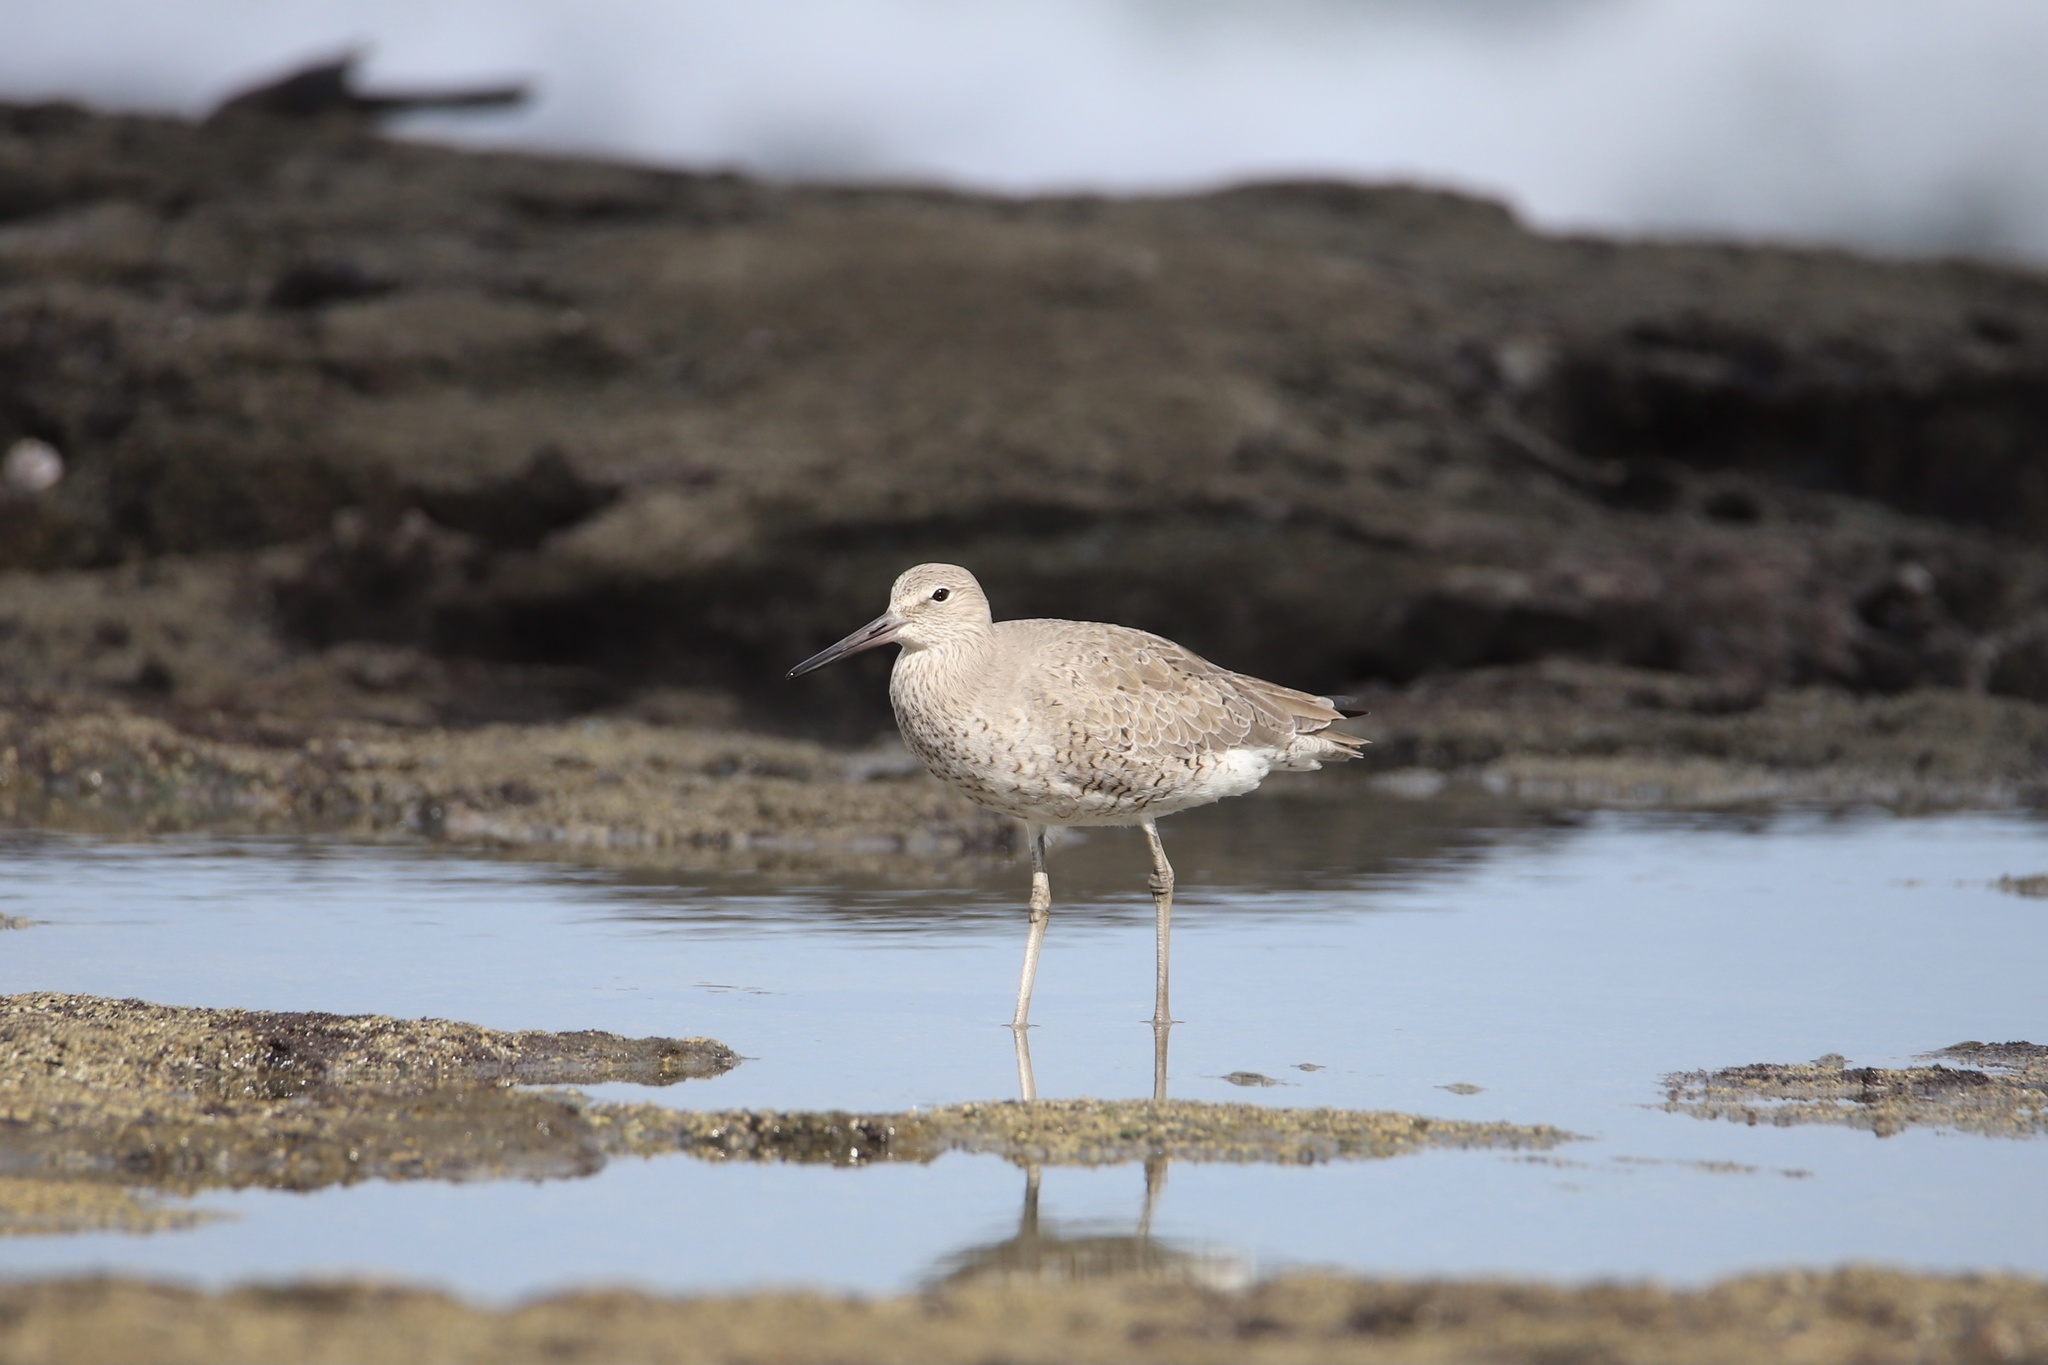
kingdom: Animalia
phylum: Chordata
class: Aves
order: Charadriiformes
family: Scolopacidae
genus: Tringa
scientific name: Tringa semipalmata
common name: Willet
